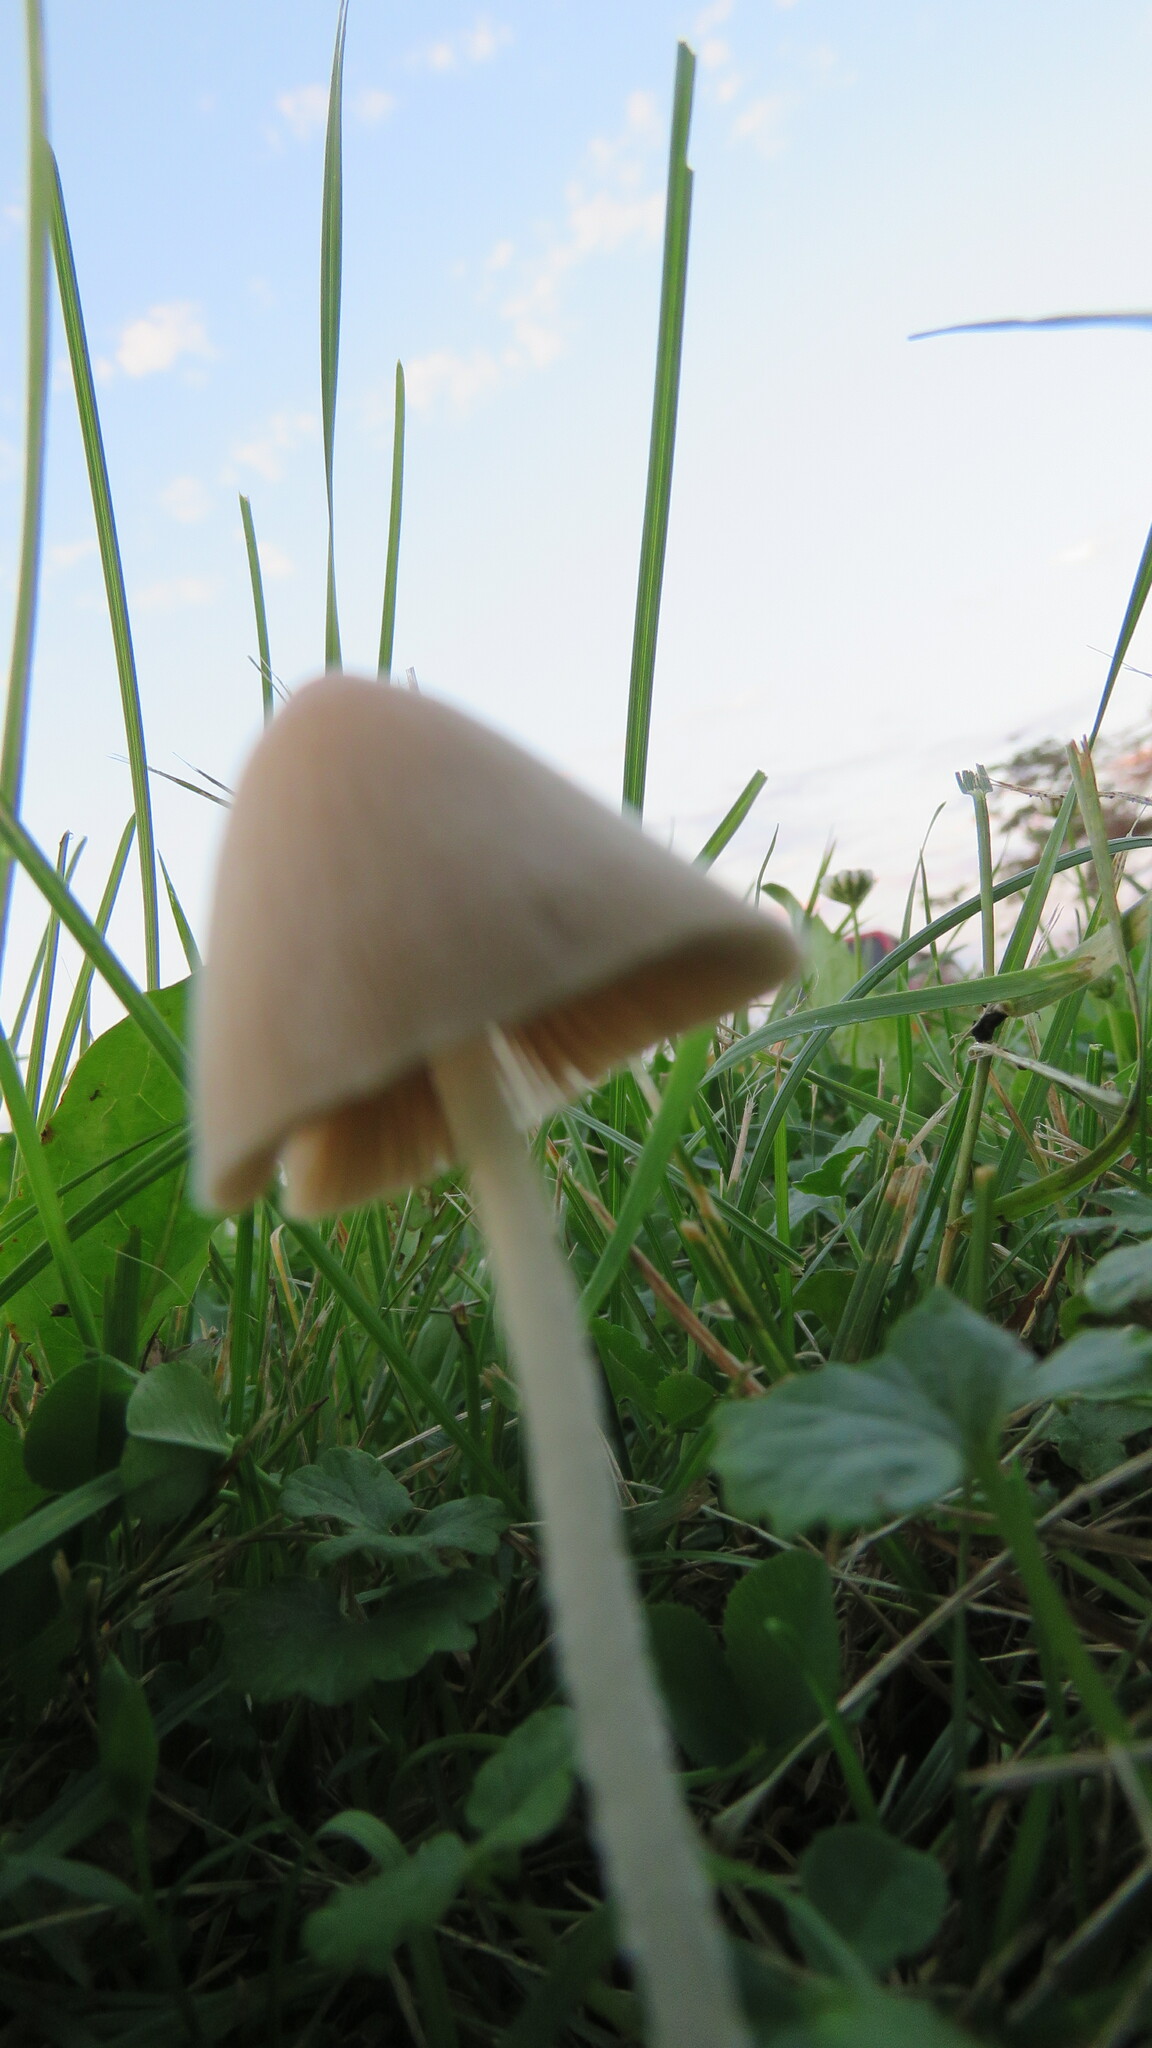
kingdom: Fungi
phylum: Basidiomycota
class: Agaricomycetes
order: Agaricales
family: Bolbitiaceae
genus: Conocybe
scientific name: Conocybe apala
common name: Milky conecap
